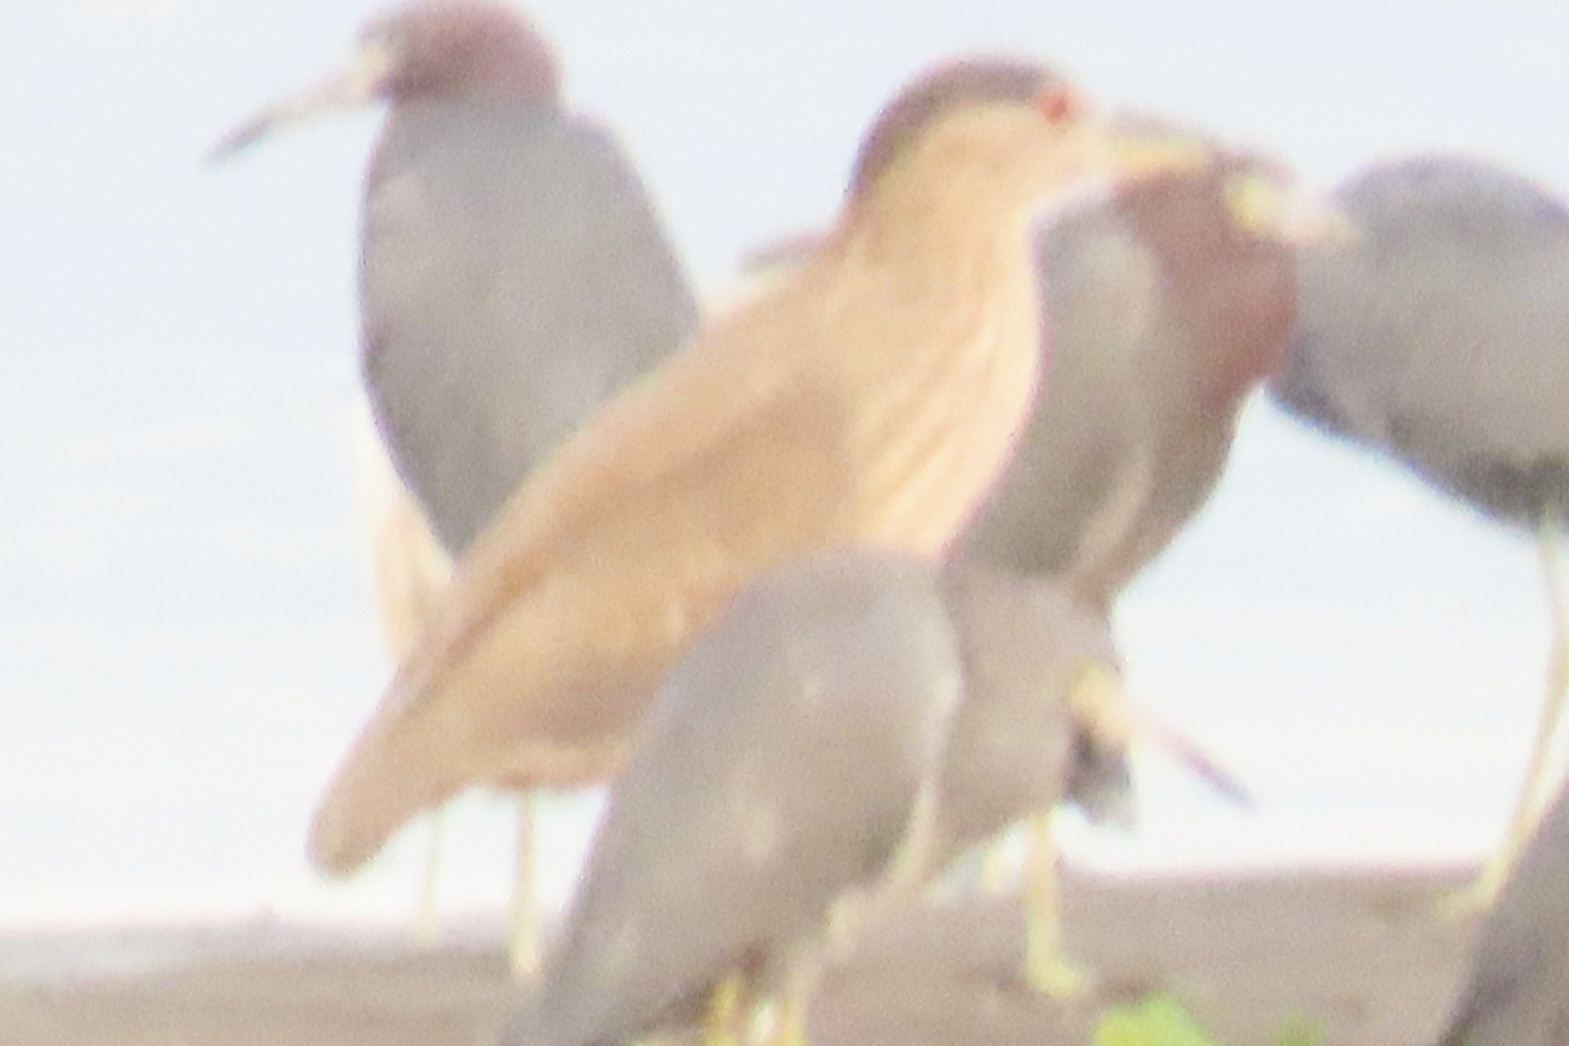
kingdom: Animalia
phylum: Chordata
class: Aves
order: Pelecaniformes
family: Ardeidae
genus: Nycticorax
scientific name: Nycticorax nycticorax
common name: Black-crowned night heron
